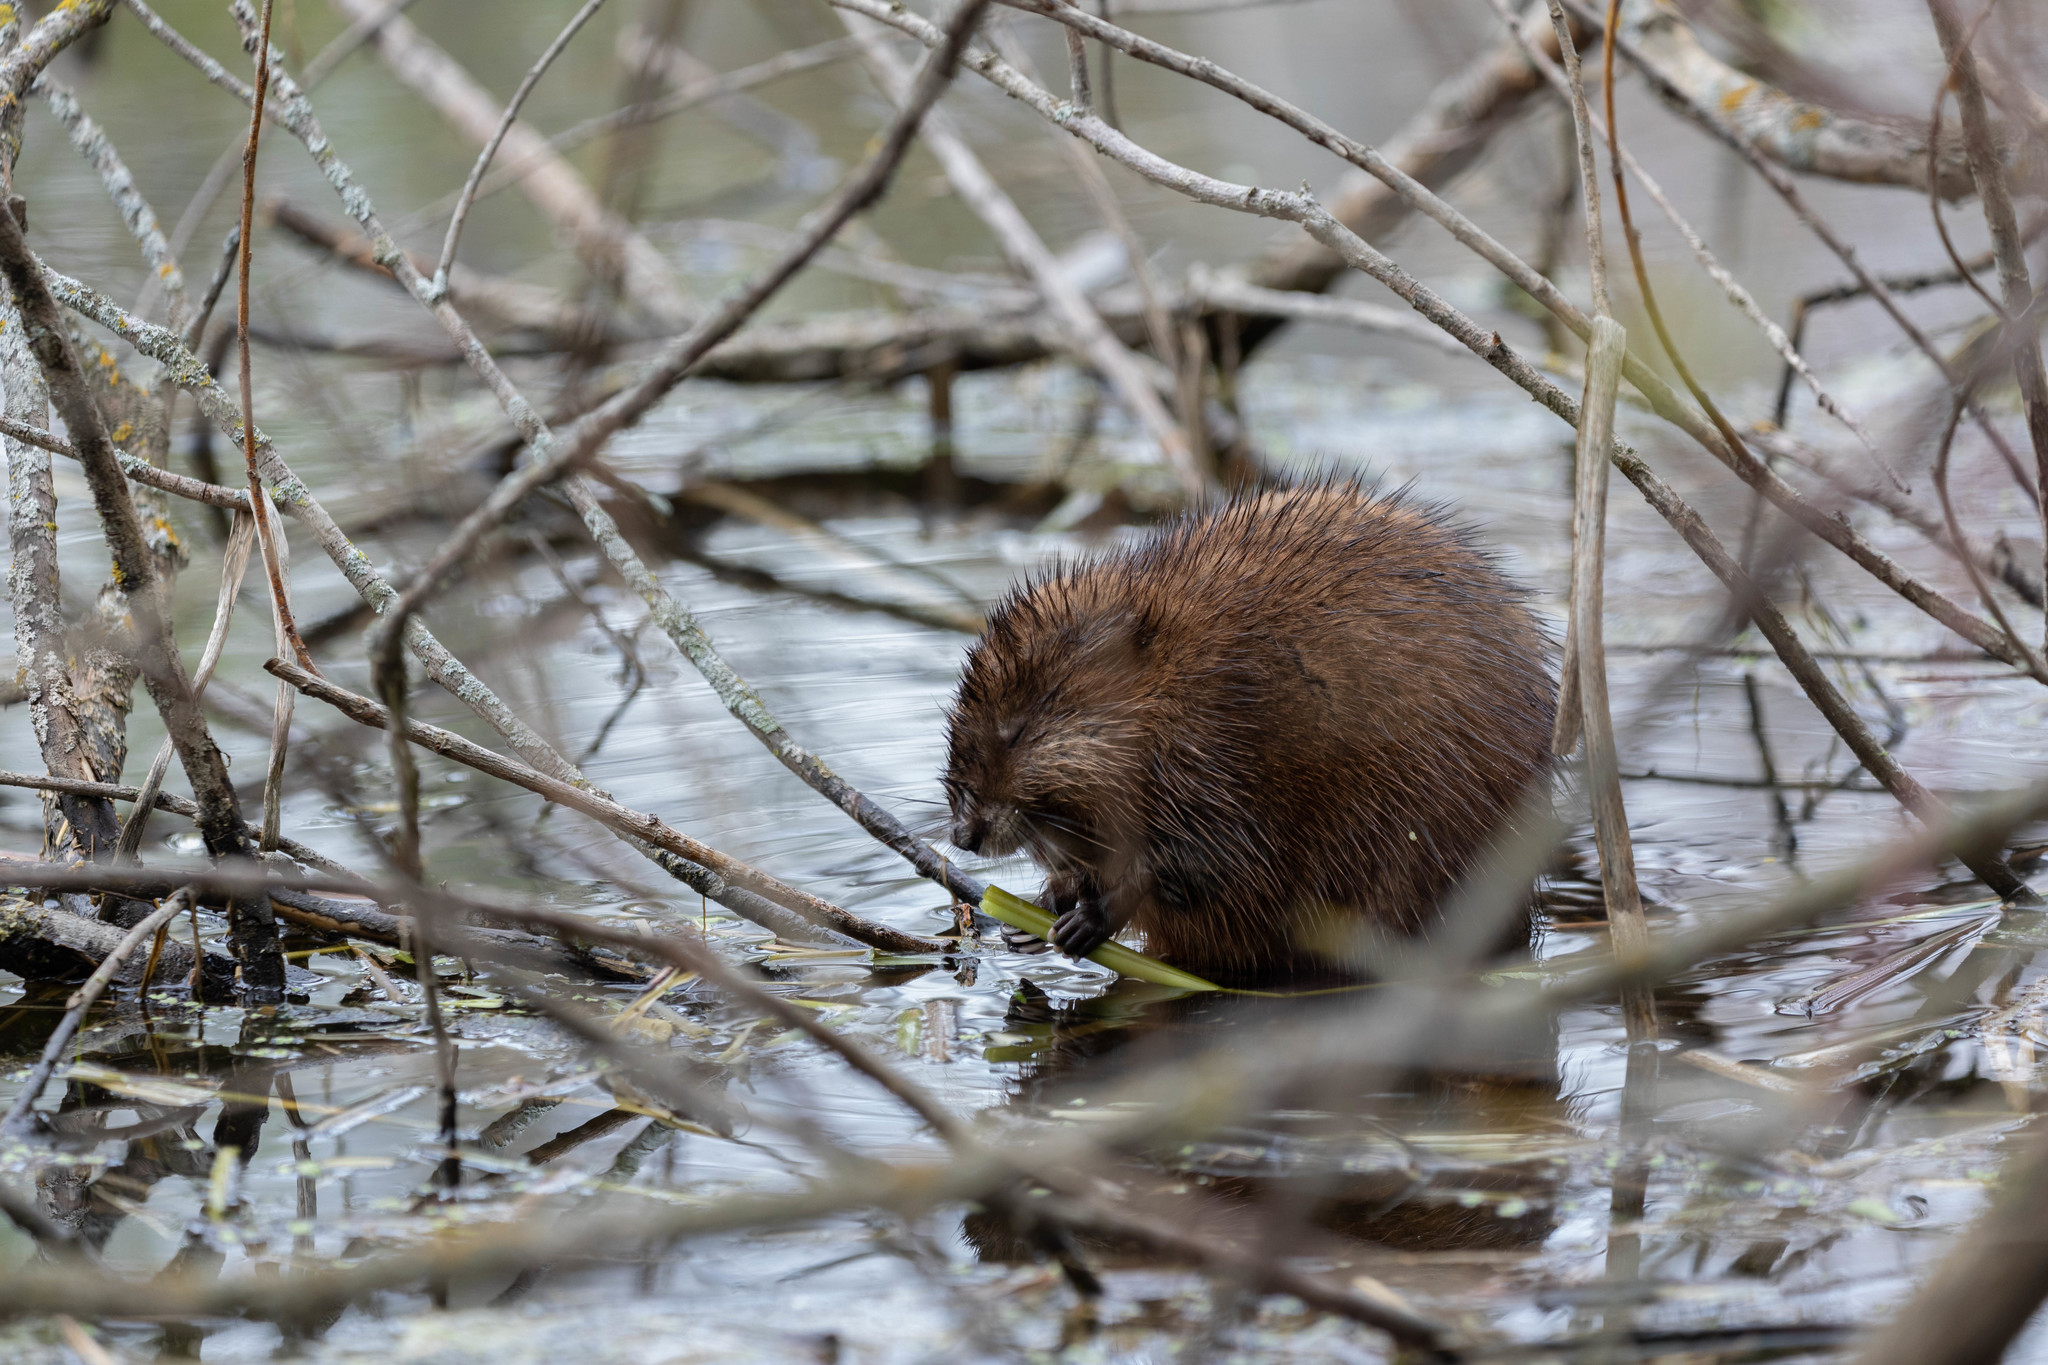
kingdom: Animalia
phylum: Chordata
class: Mammalia
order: Rodentia
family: Cricetidae
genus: Ondatra
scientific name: Ondatra zibethicus
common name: Muskrat
